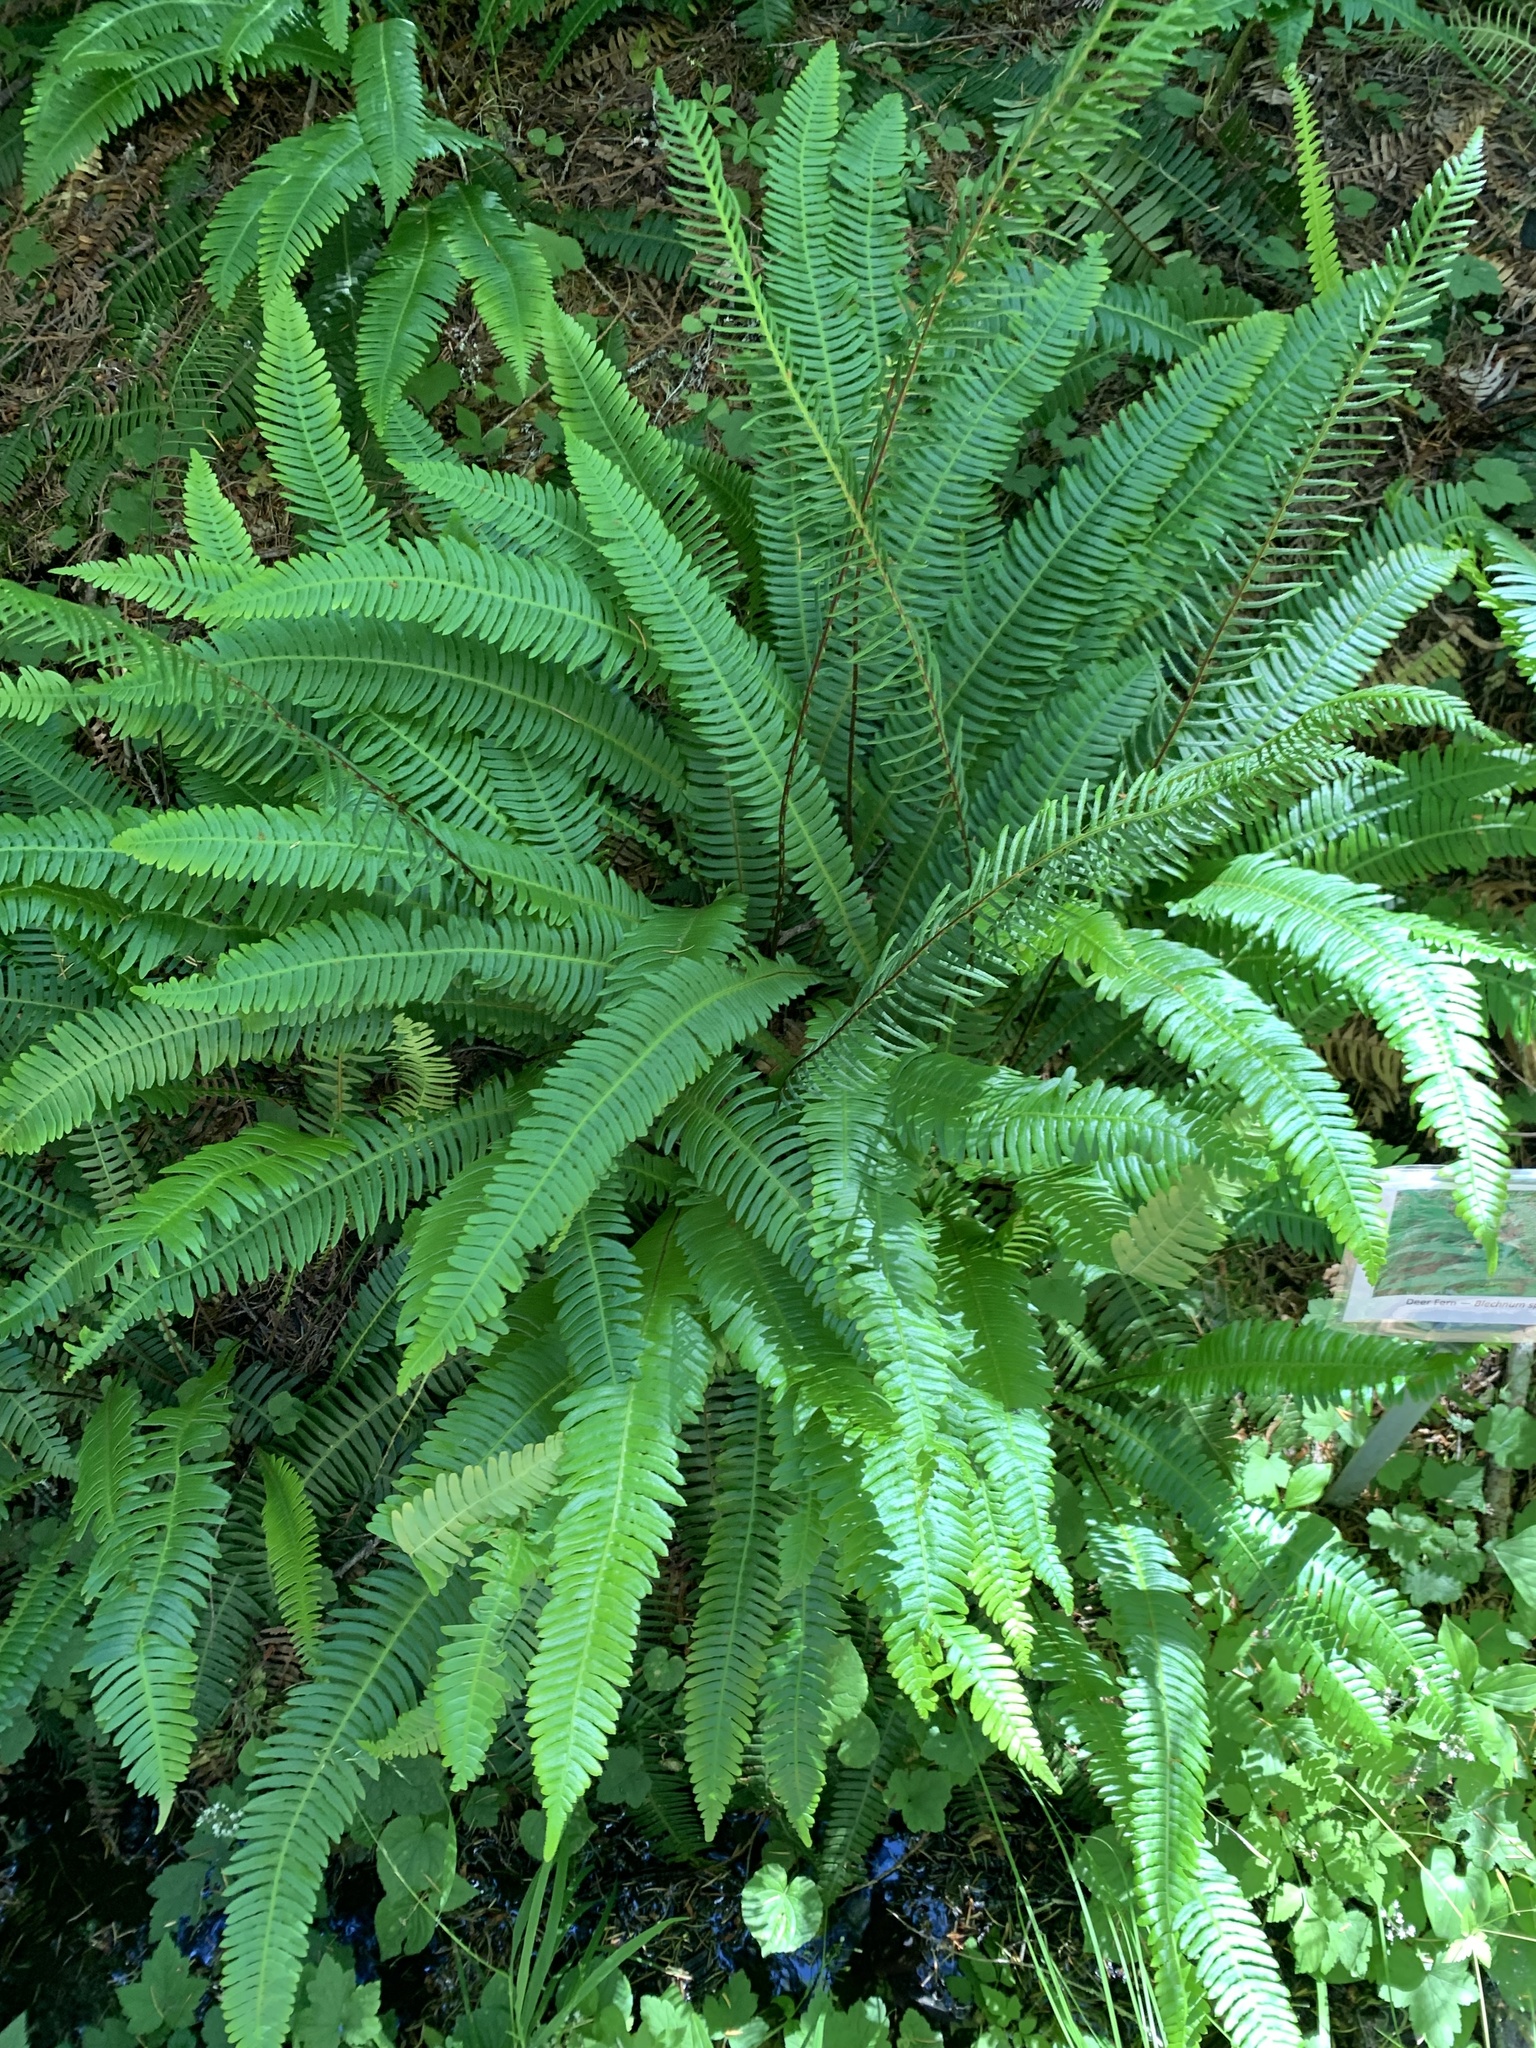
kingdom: Plantae
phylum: Tracheophyta
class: Polypodiopsida
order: Polypodiales
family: Blechnaceae
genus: Struthiopteris
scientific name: Struthiopteris spicant
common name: Deer fern
